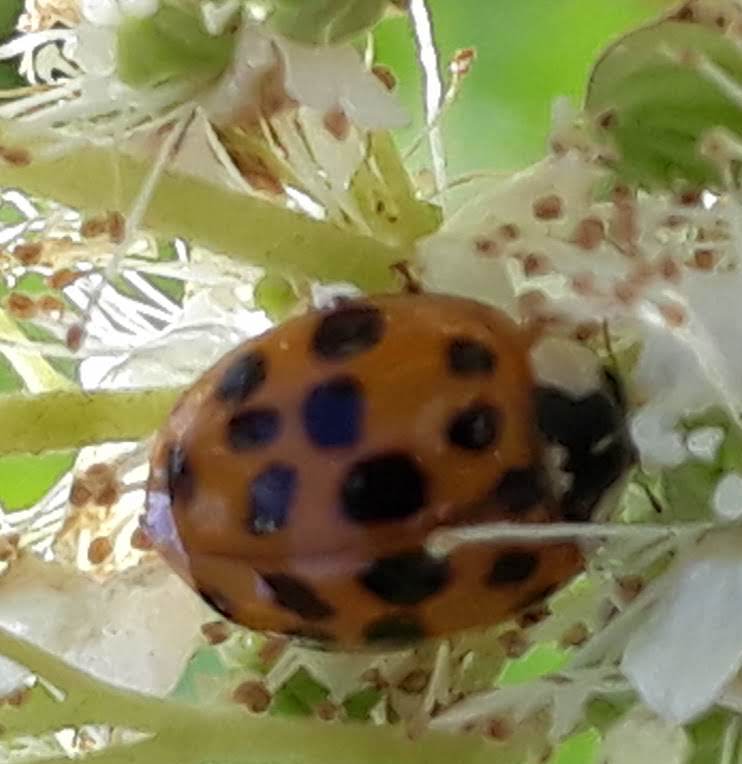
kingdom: Animalia
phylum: Arthropoda
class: Insecta
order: Coleoptera
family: Coccinellidae
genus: Harmonia
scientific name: Harmonia axyridis
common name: Harlequin ladybird
